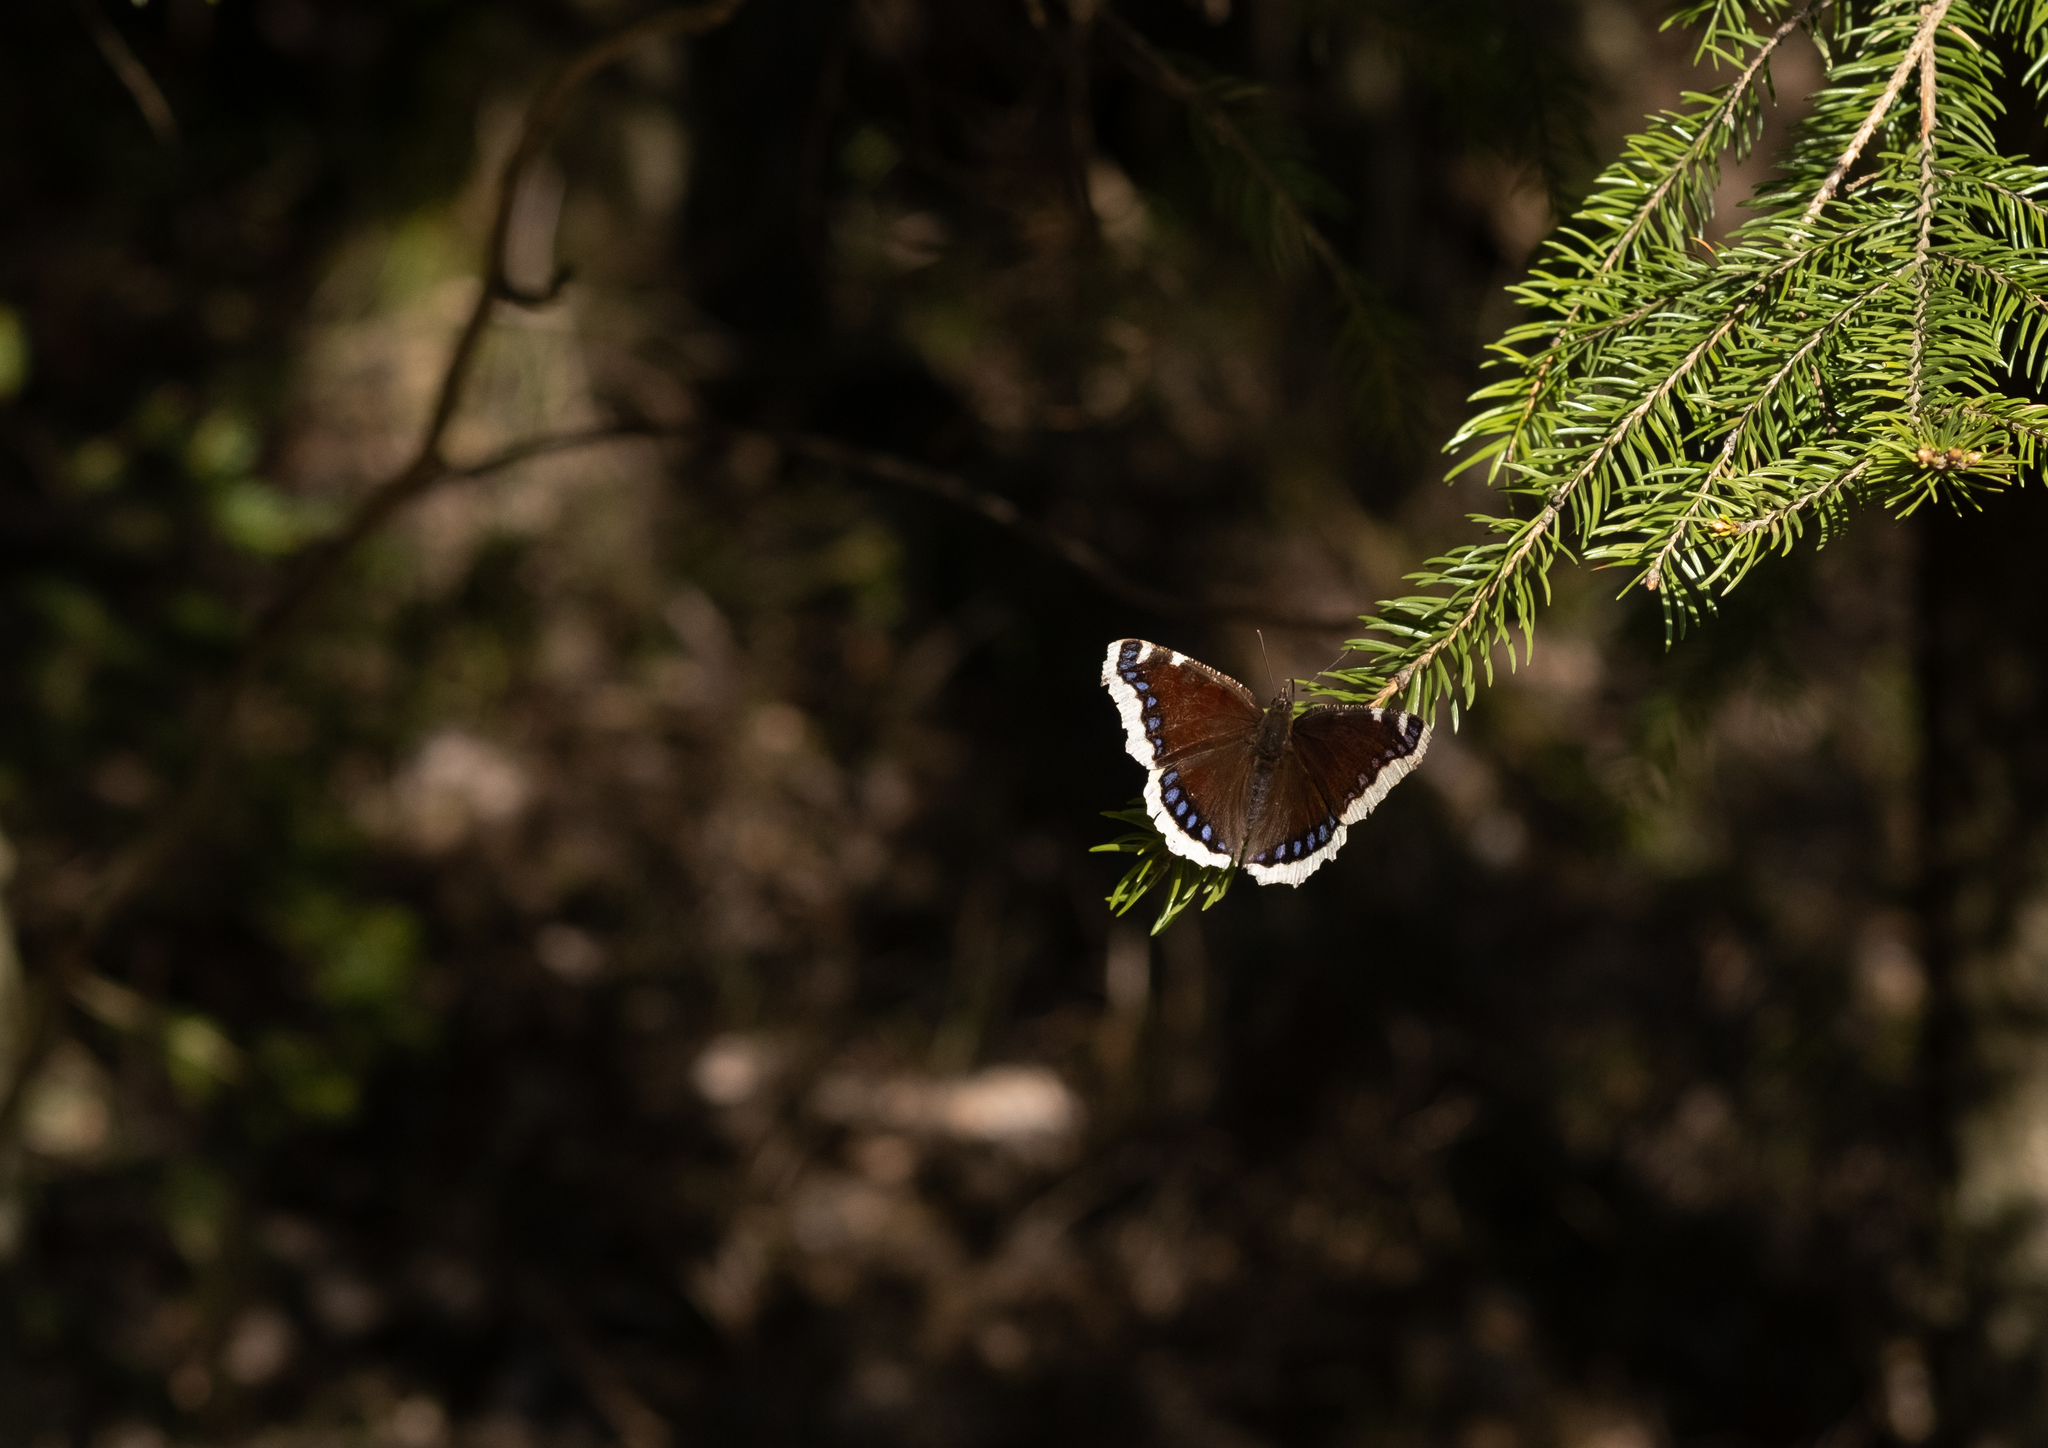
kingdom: Animalia
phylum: Arthropoda
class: Insecta
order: Lepidoptera
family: Nymphalidae
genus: Nymphalis
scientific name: Nymphalis antiopa
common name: Camberwell beauty
